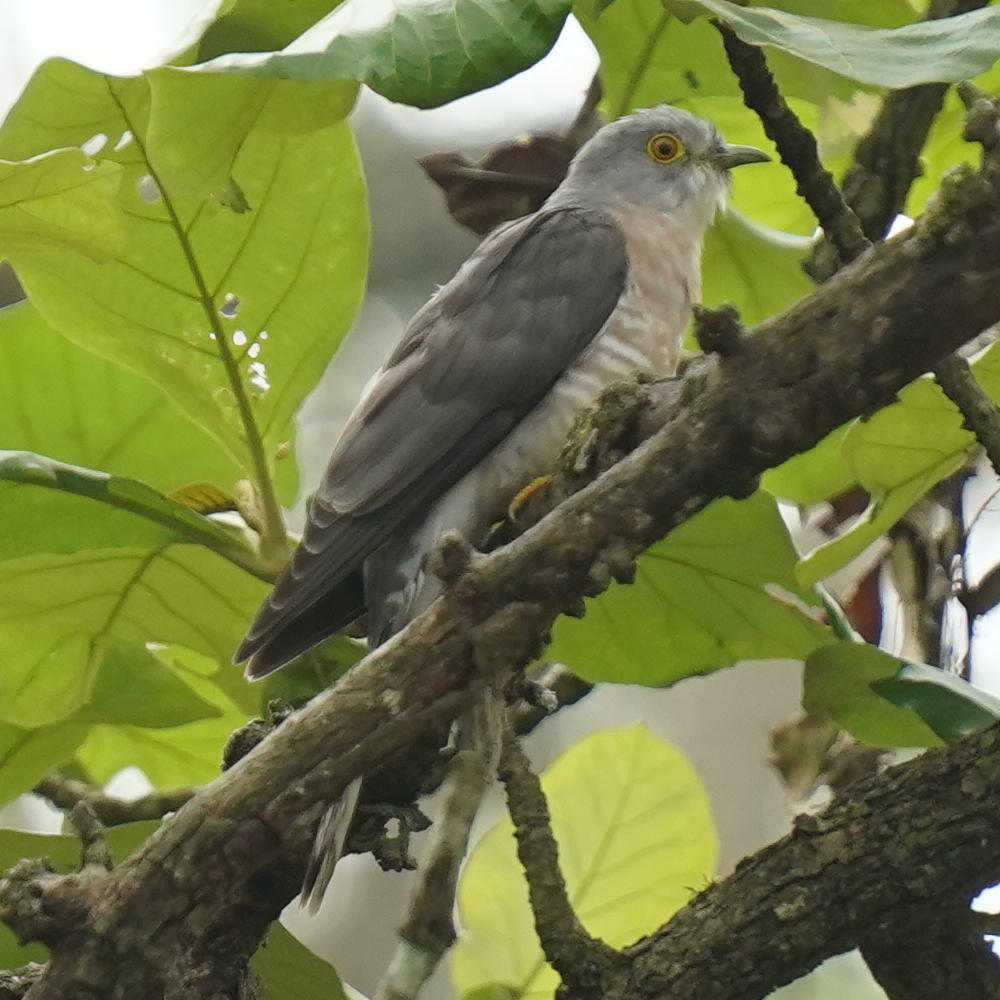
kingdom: Animalia
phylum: Chordata
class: Aves
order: Cuculiformes
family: Cuculidae
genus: Cuculus
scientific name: Cuculus varius
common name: Common hawk cuckoo
